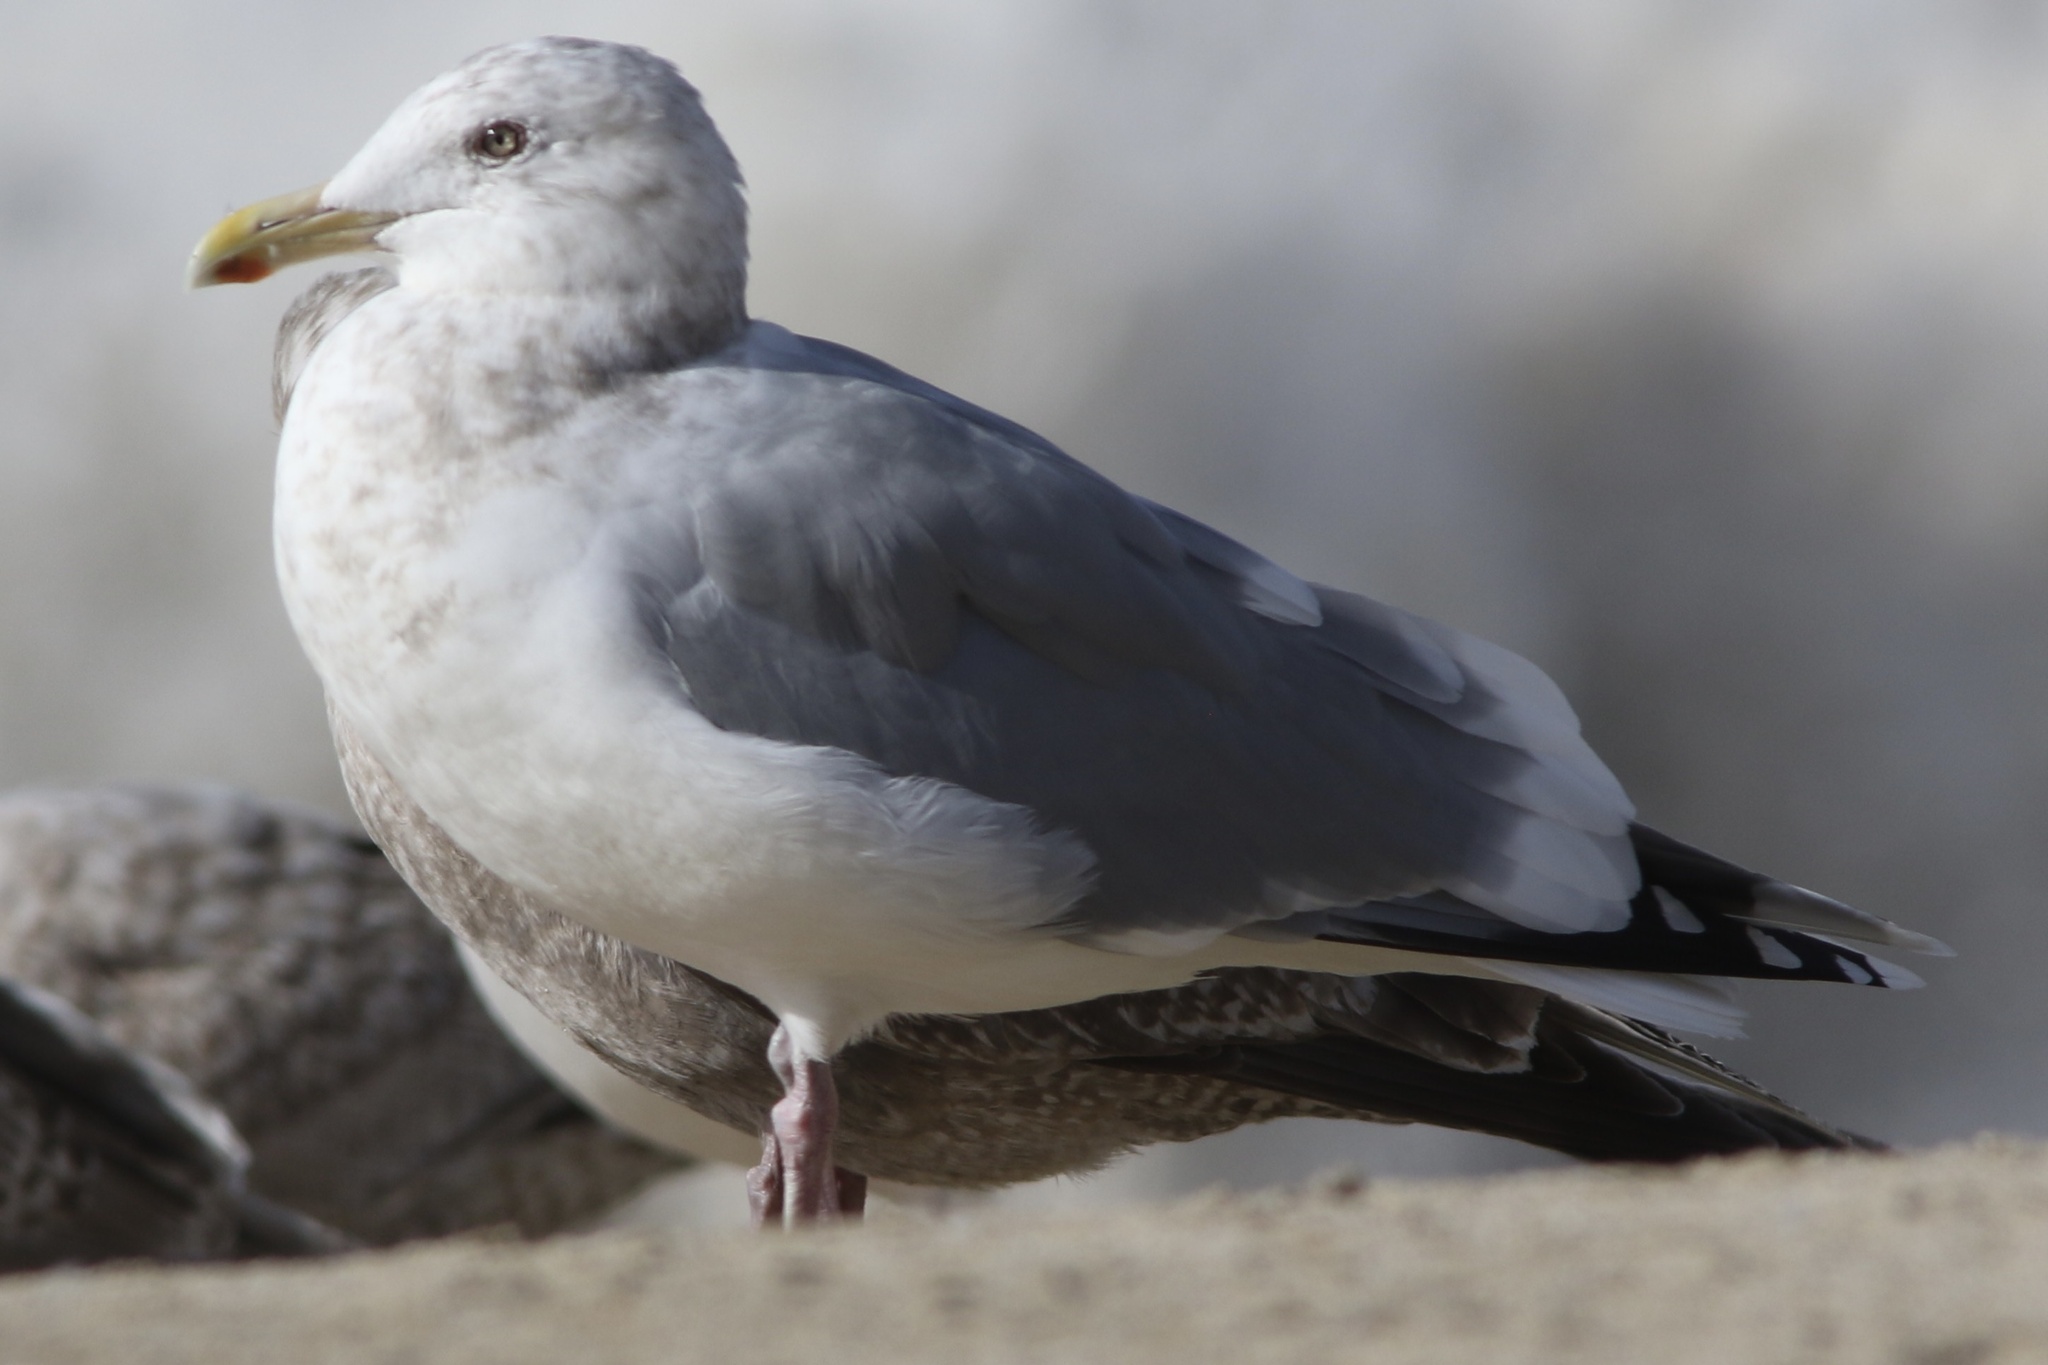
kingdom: Animalia
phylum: Chordata
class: Aves
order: Charadriiformes
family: Laridae
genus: Larus
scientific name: Larus glaucoides
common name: Iceland gull
